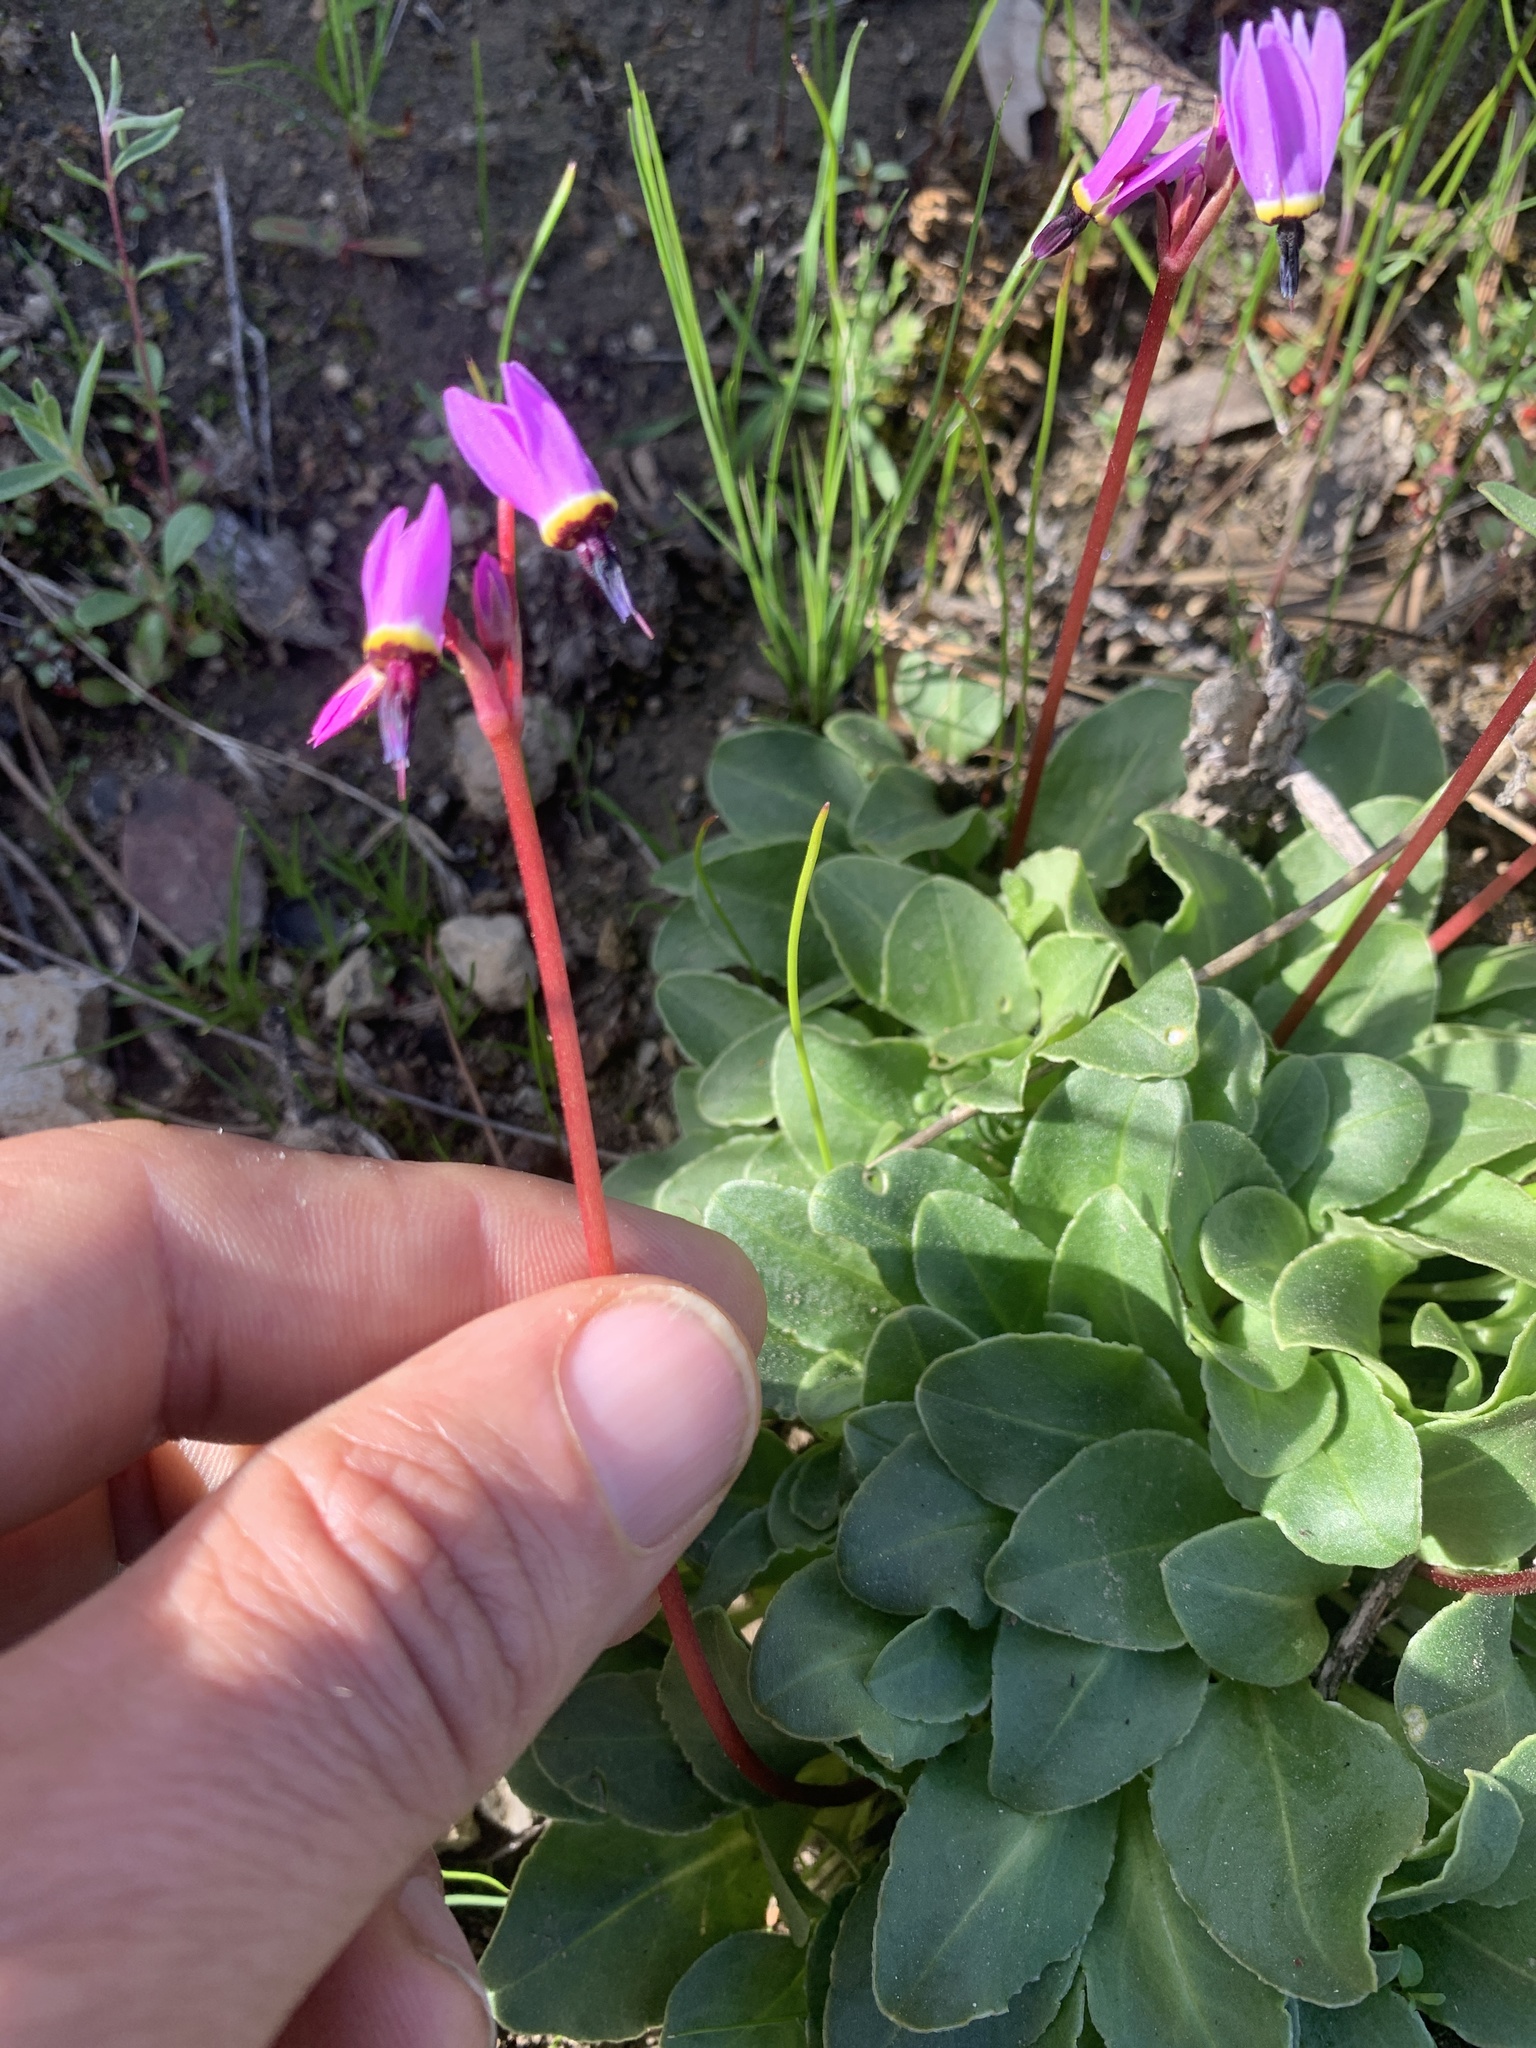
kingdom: Plantae
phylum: Tracheophyta
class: Magnoliopsida
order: Ericales
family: Primulaceae
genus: Dodecatheon
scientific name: Dodecatheon hendersonii
